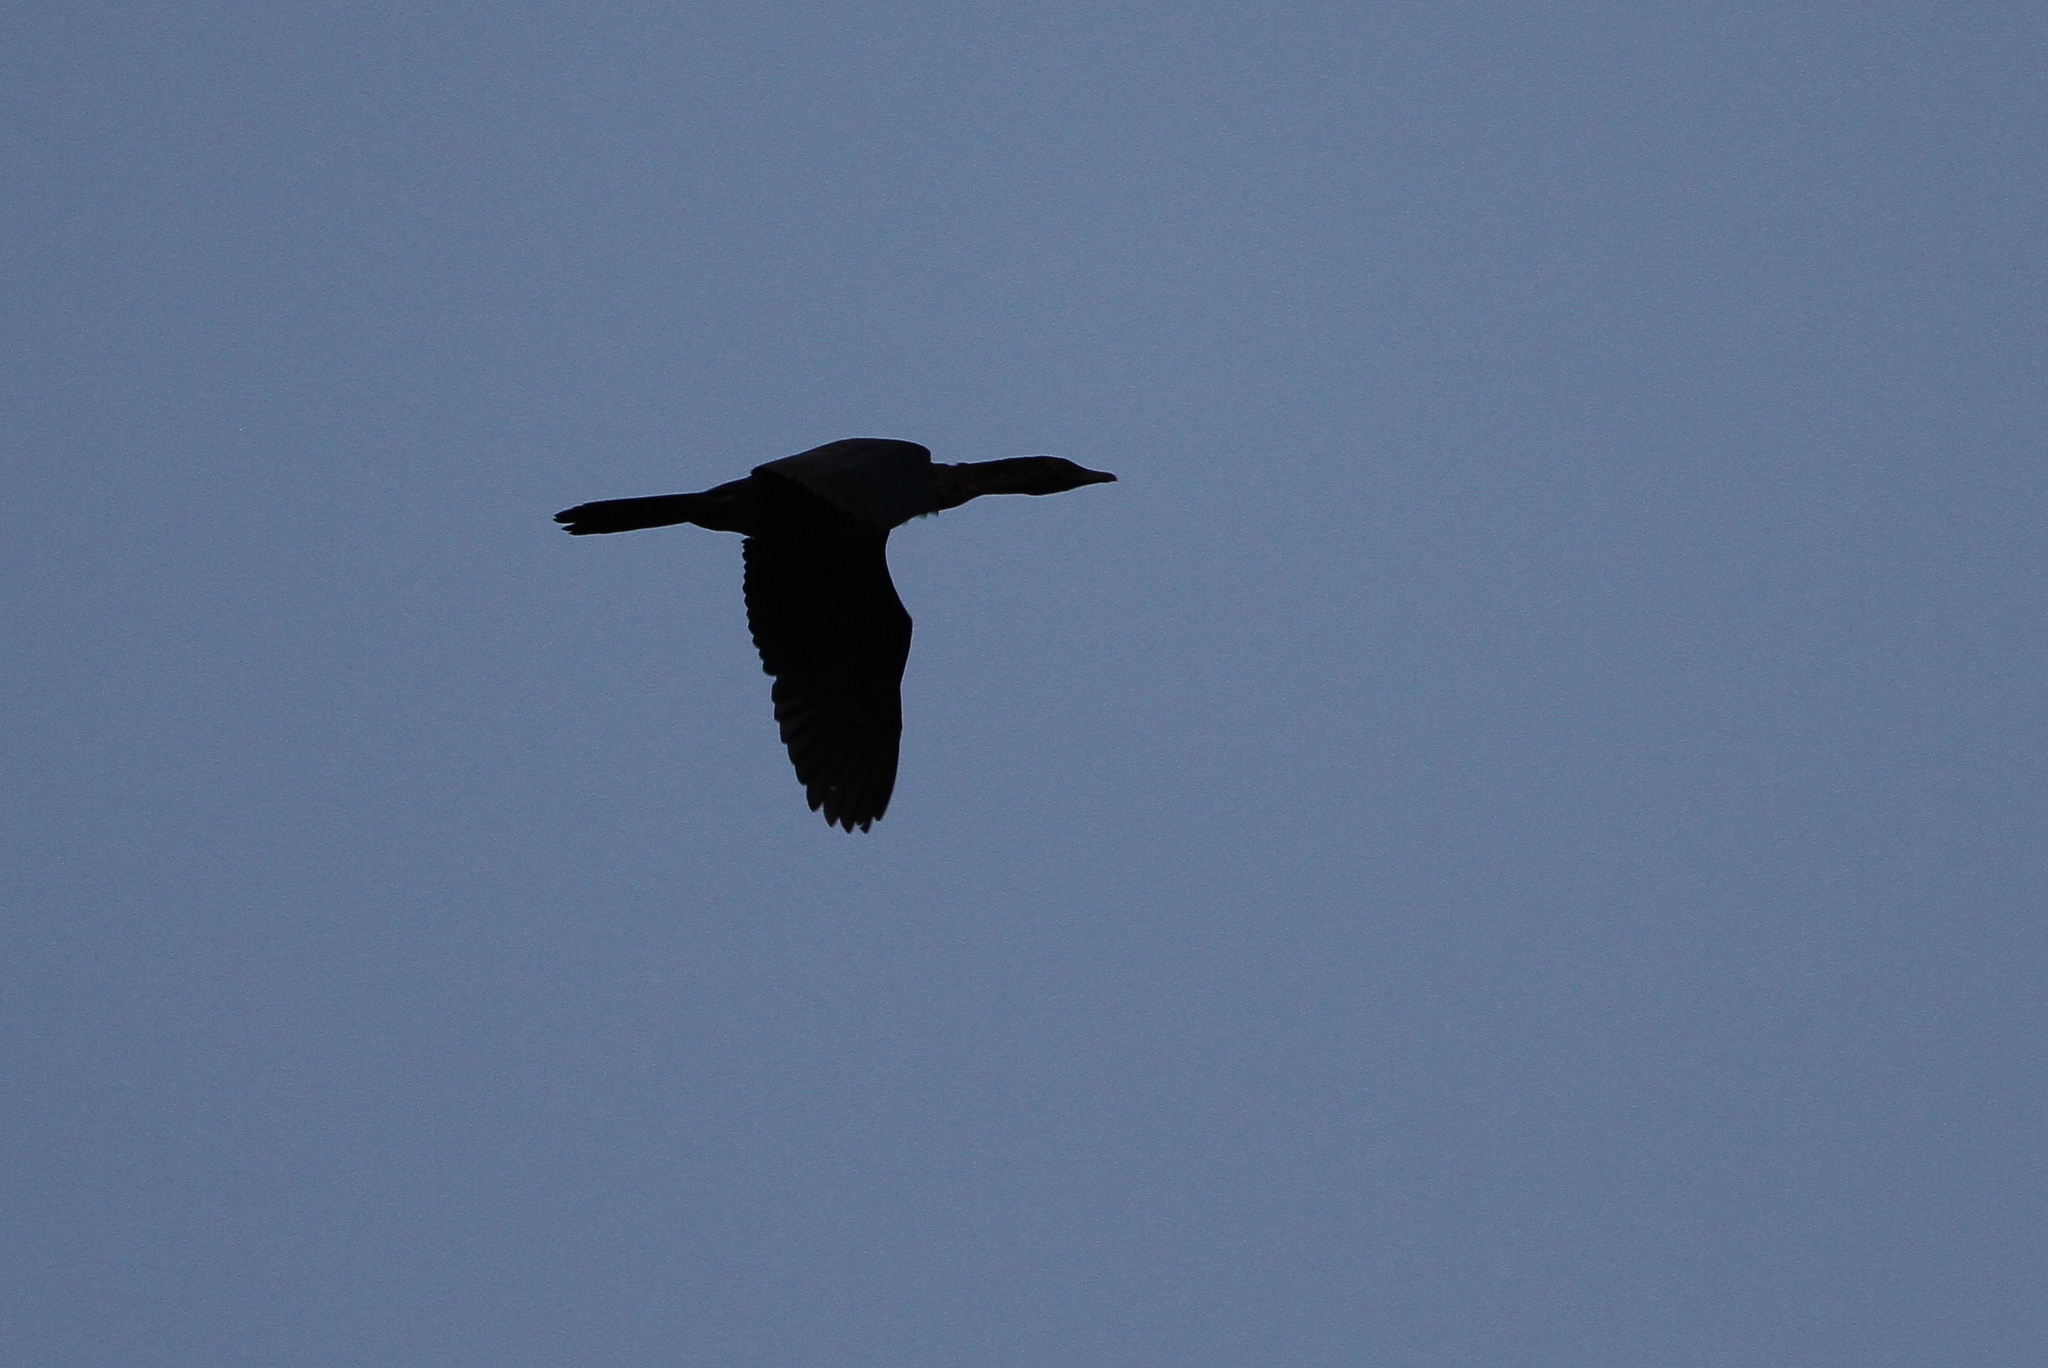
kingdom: Animalia
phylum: Chordata
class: Aves
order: Suliformes
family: Phalacrocoracidae
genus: Microcarbo
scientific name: Microcarbo pygmaeus
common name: Pygmy cormorant
